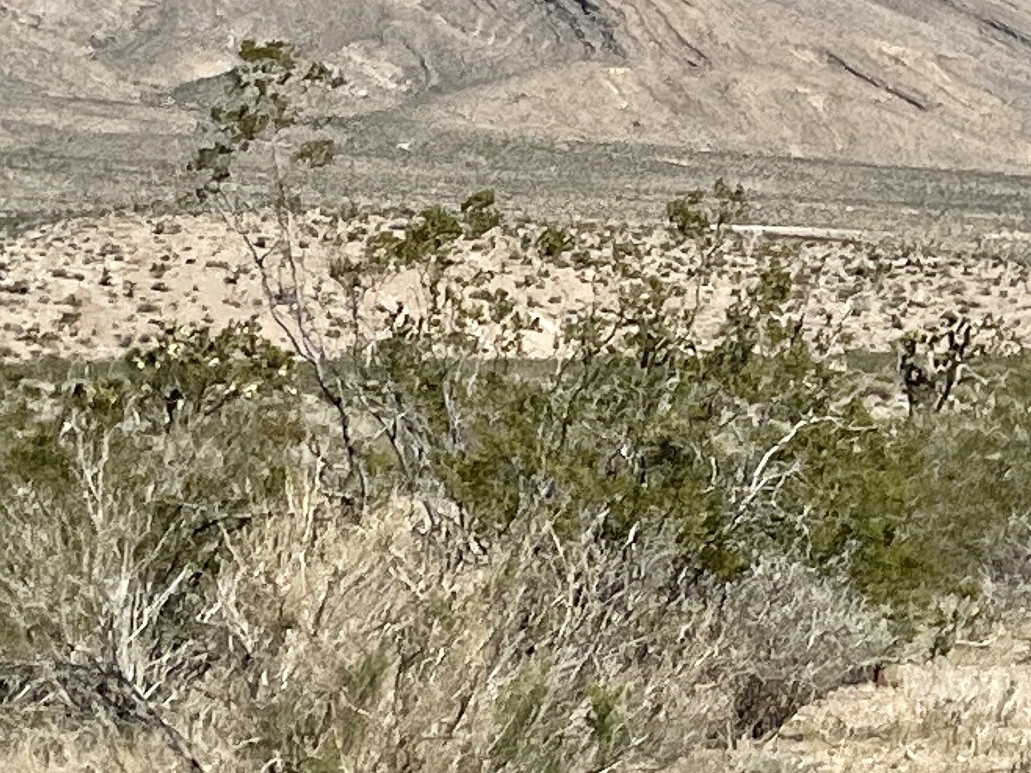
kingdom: Plantae
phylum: Tracheophyta
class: Magnoliopsida
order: Zygophyllales
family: Zygophyllaceae
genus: Larrea
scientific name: Larrea tridentata
